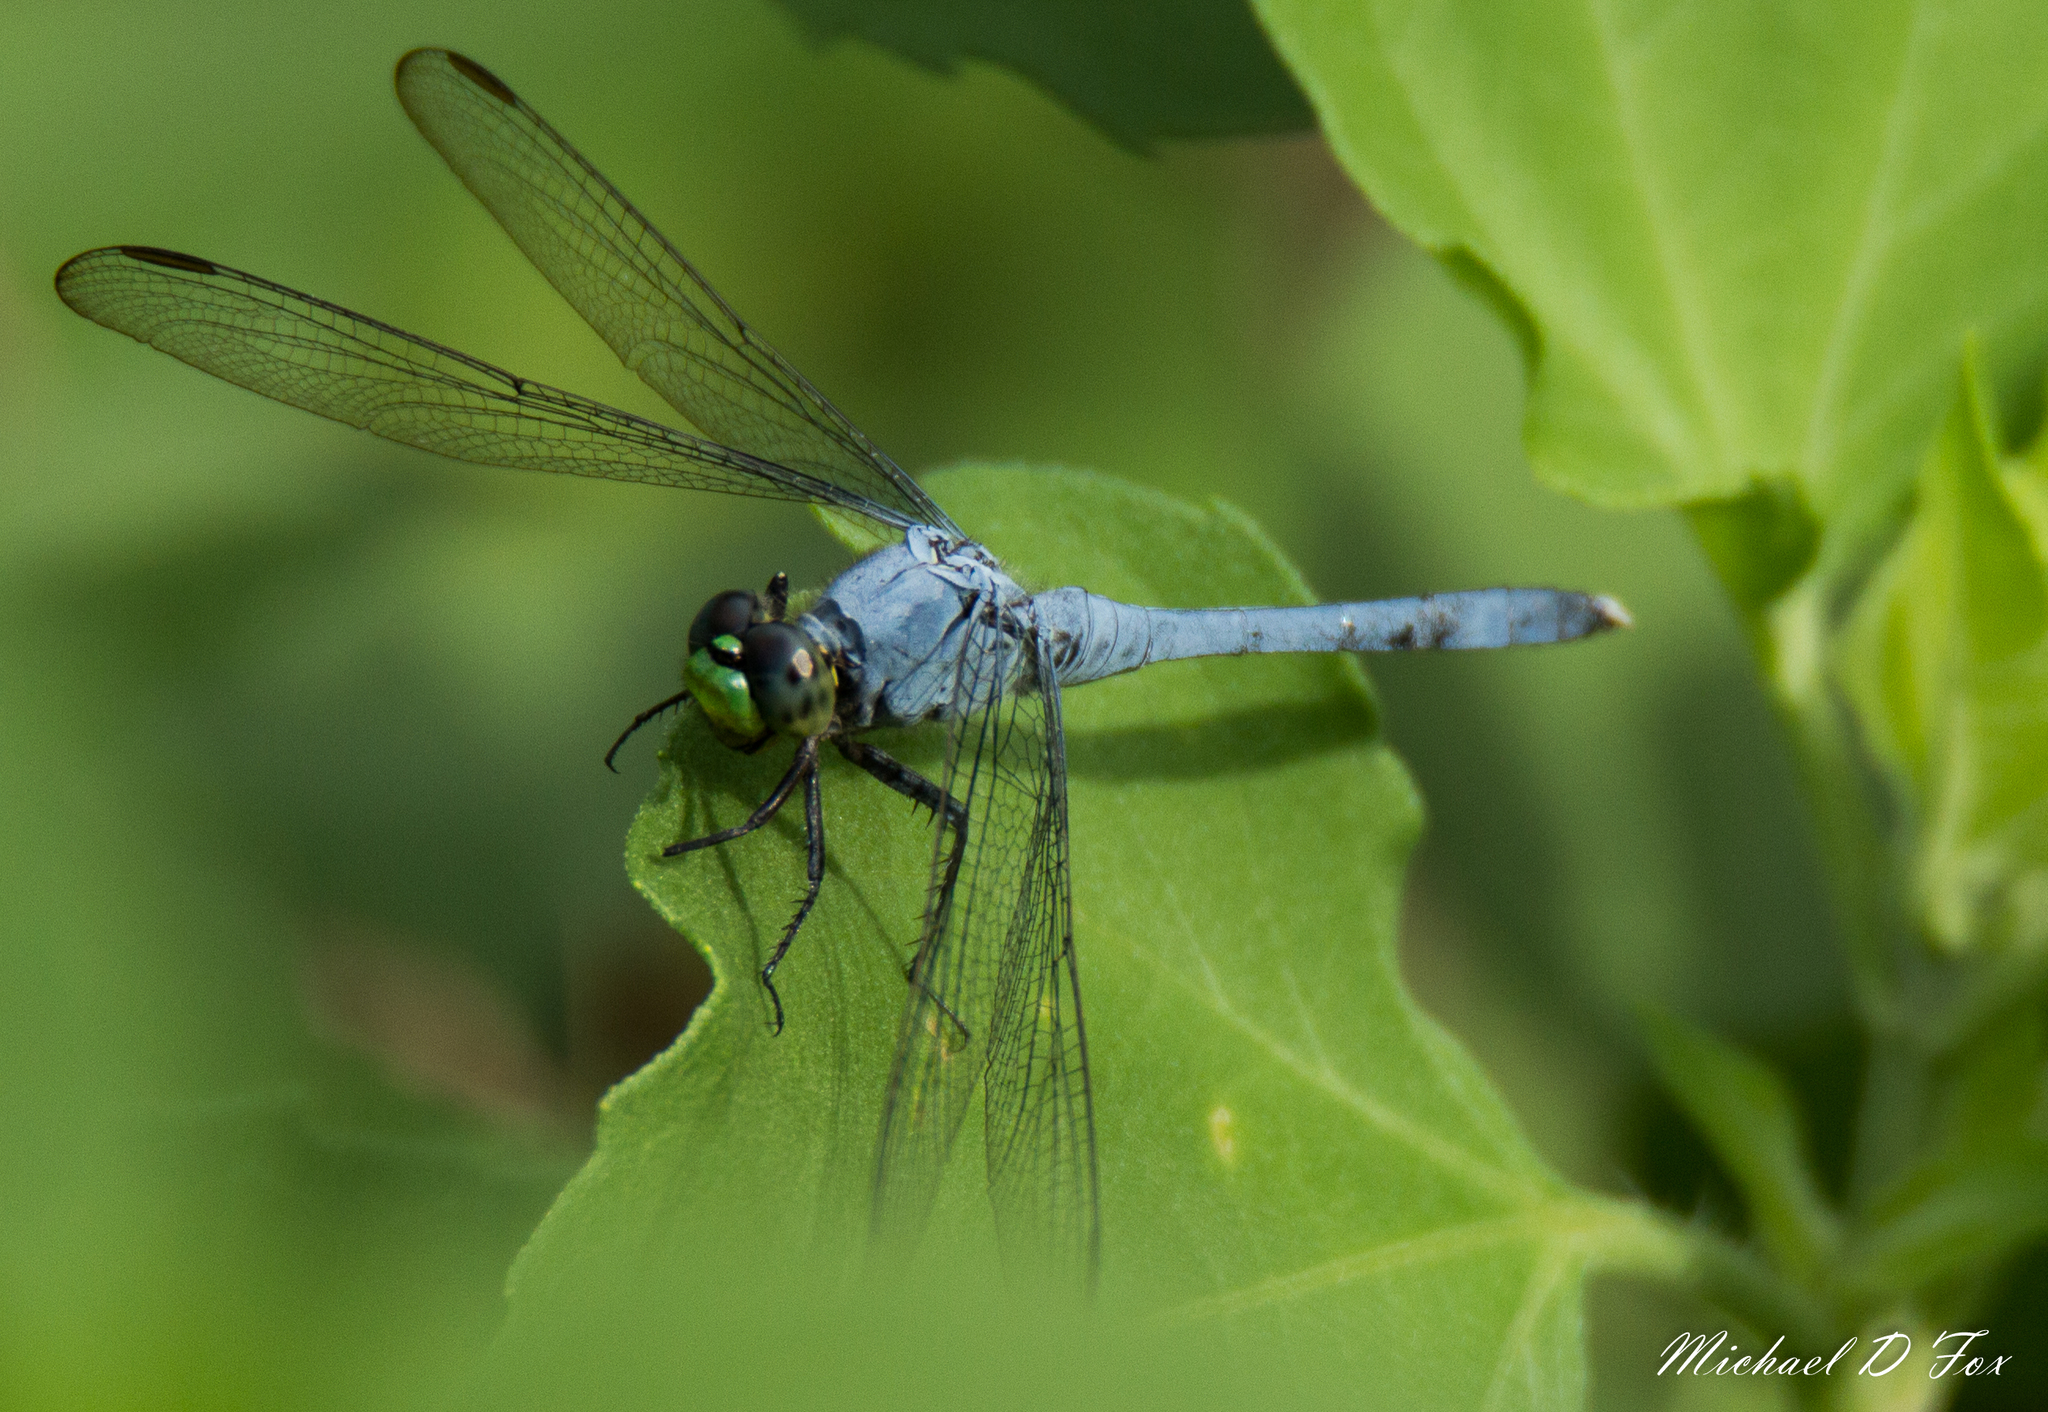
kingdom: Animalia
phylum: Arthropoda
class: Insecta
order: Odonata
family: Libellulidae
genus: Erythemis
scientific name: Erythemis simplicicollis
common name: Eastern pondhawk
